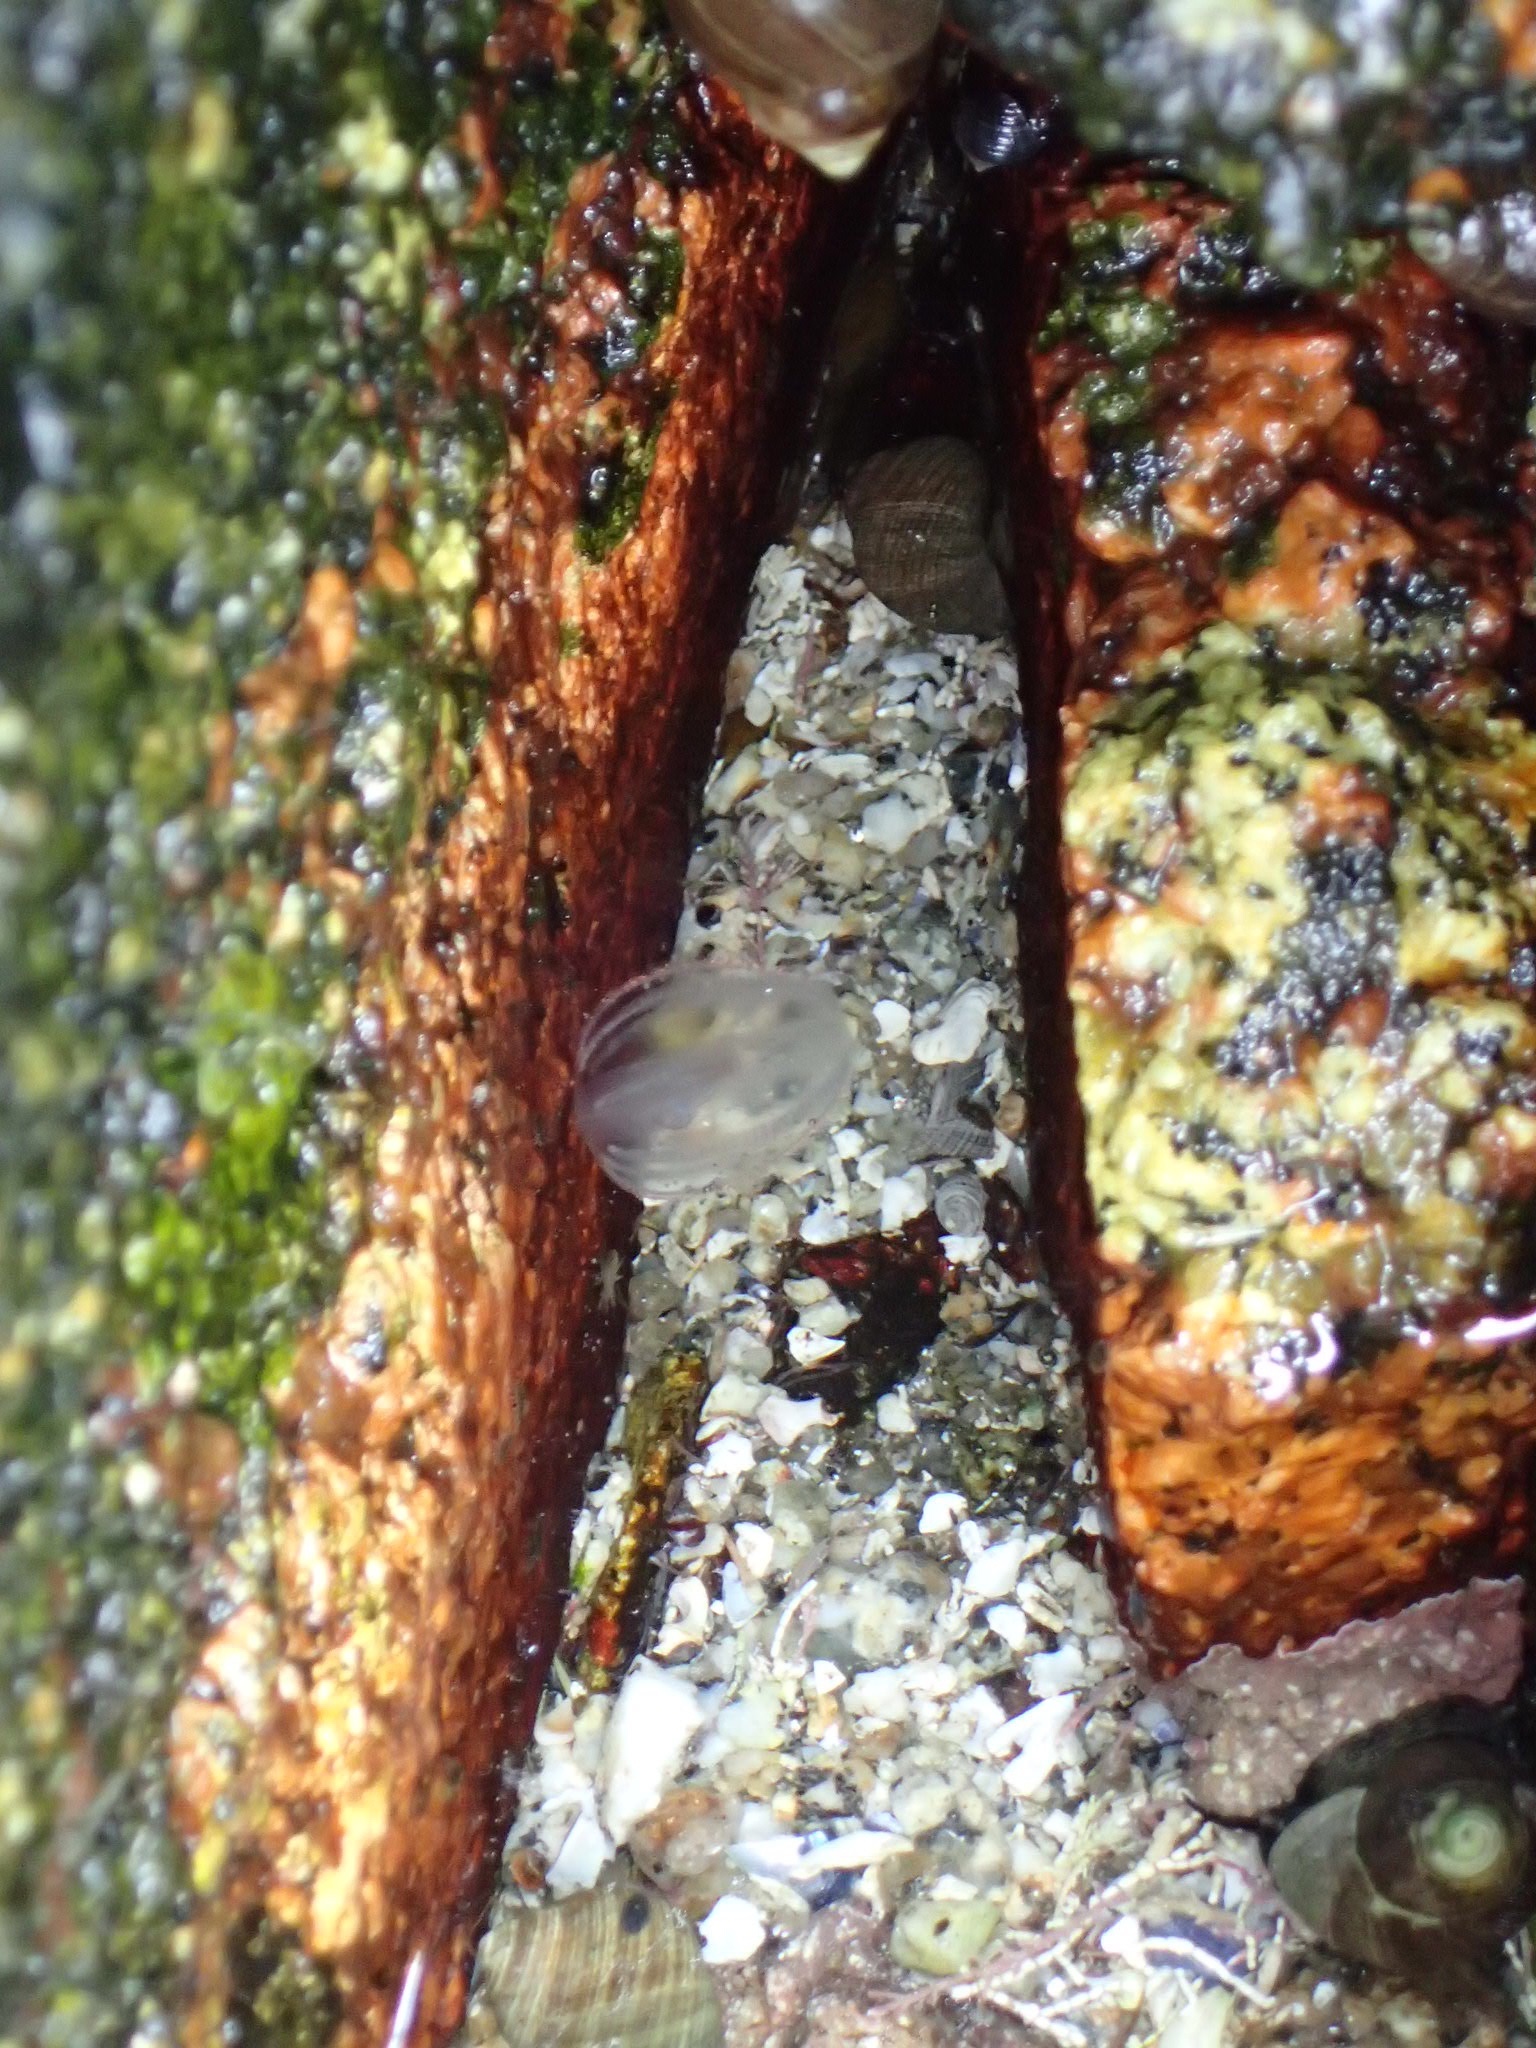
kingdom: Animalia
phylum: Ctenophora
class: Tentaculata
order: Cydippida
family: Pleurobrachiidae
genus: Pleurobrachia
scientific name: Pleurobrachia pileus
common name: Sea gooseberry
